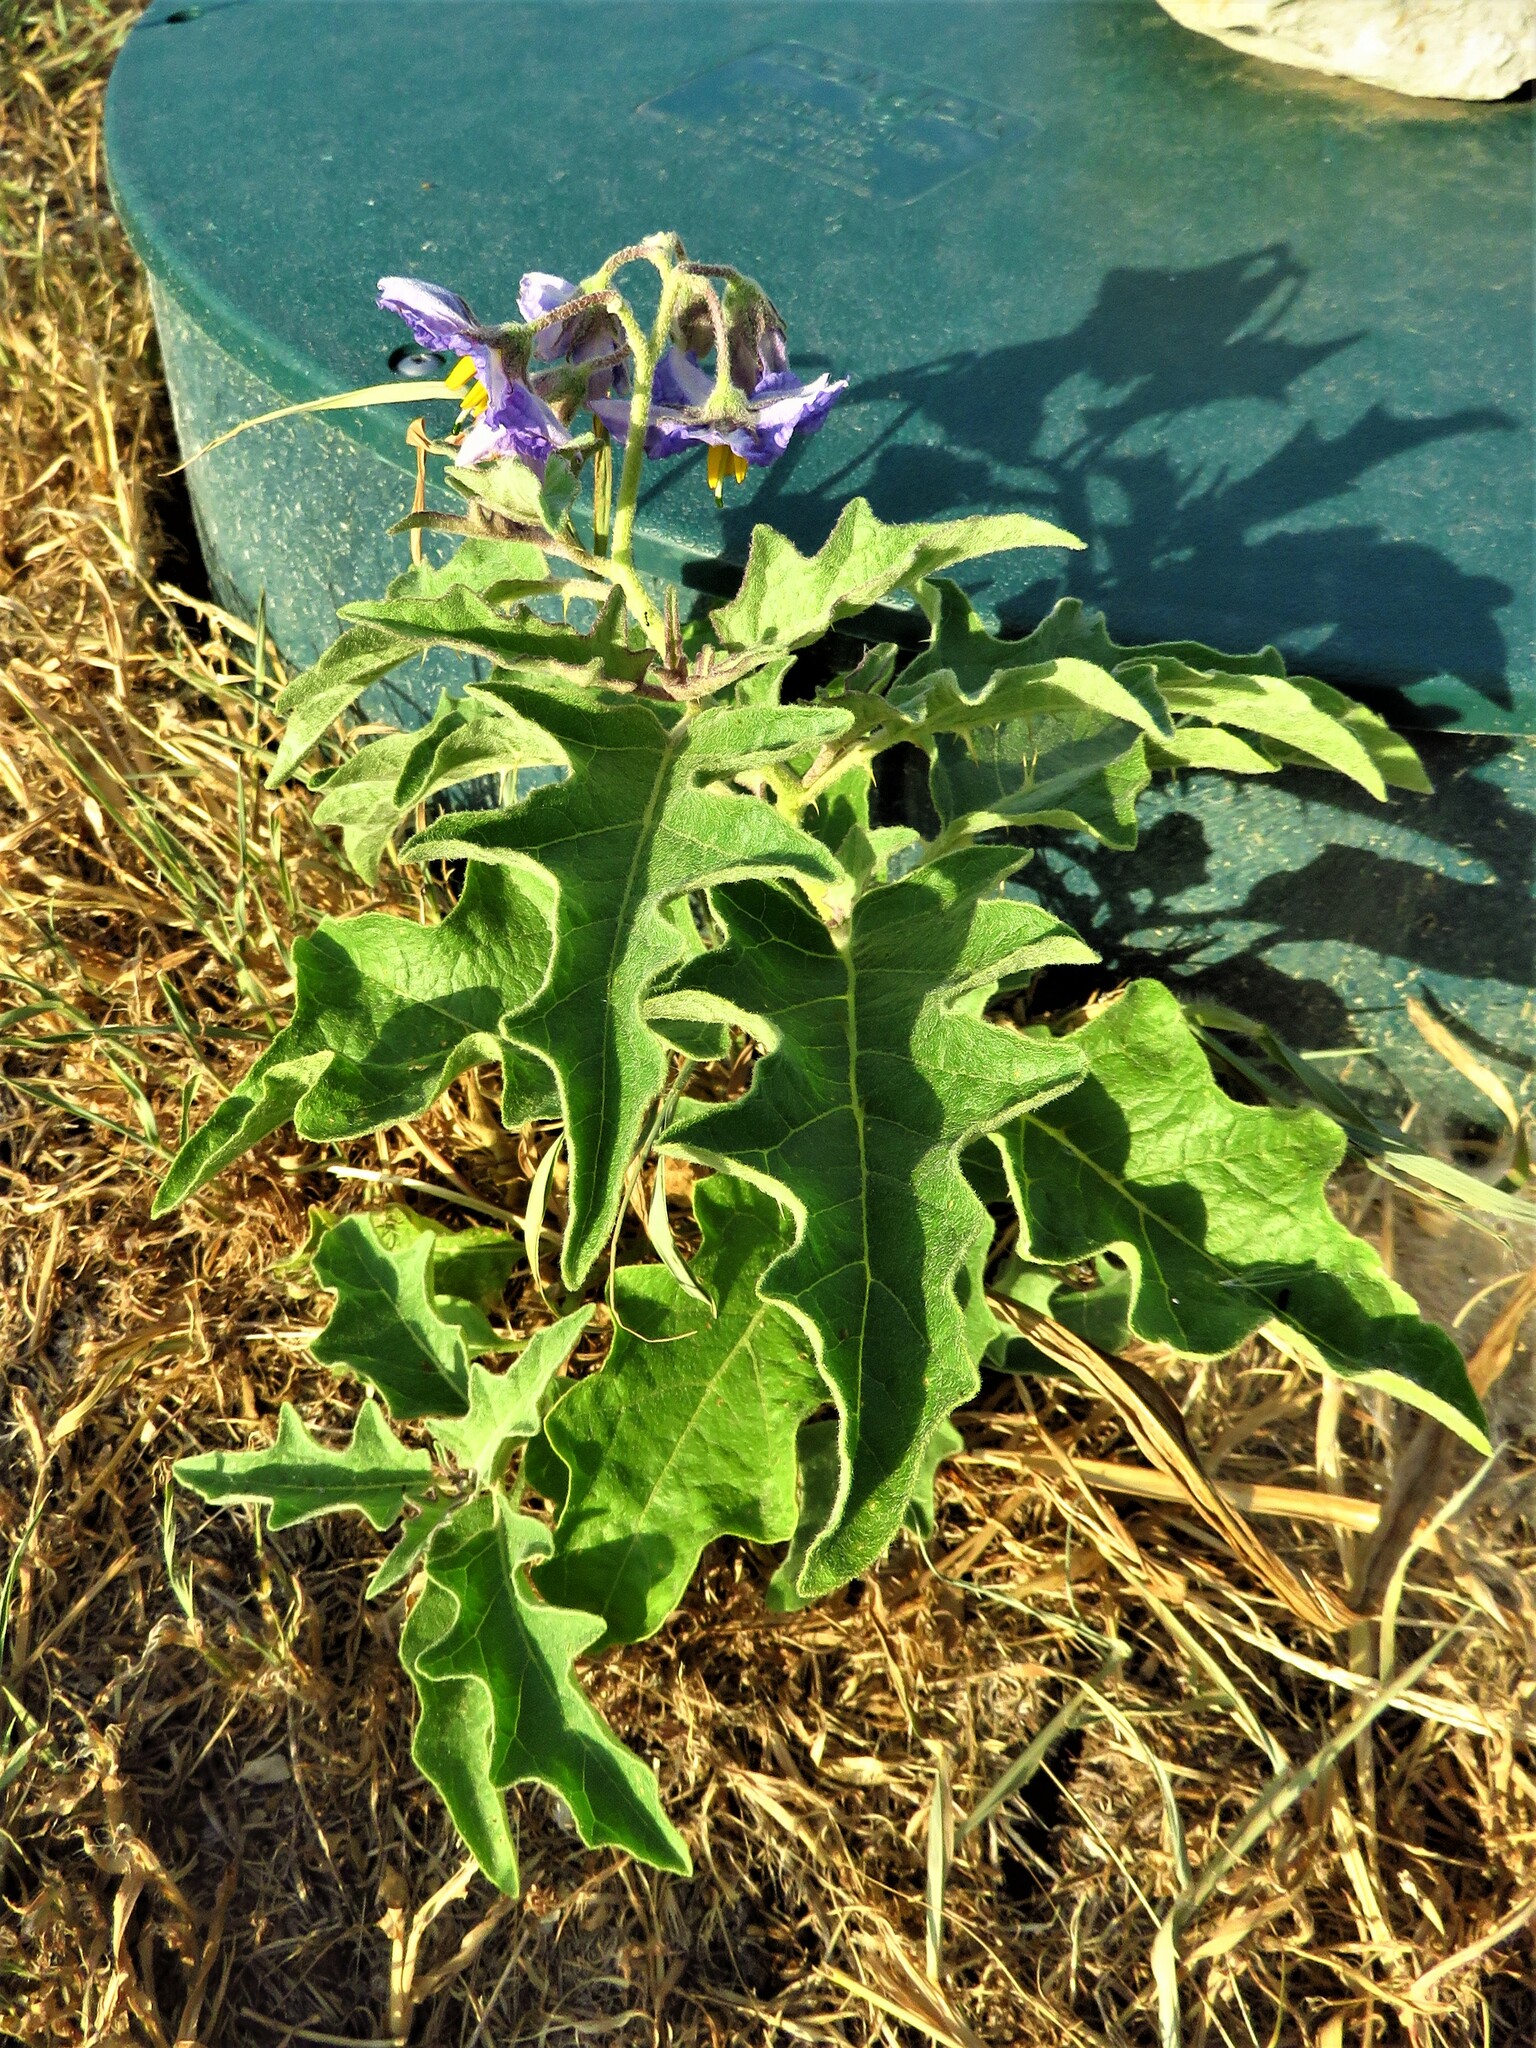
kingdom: Plantae
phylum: Tracheophyta
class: Magnoliopsida
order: Solanales
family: Solanaceae
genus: Solanum
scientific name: Solanum dimidiatum
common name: Carolina horse-nettle
